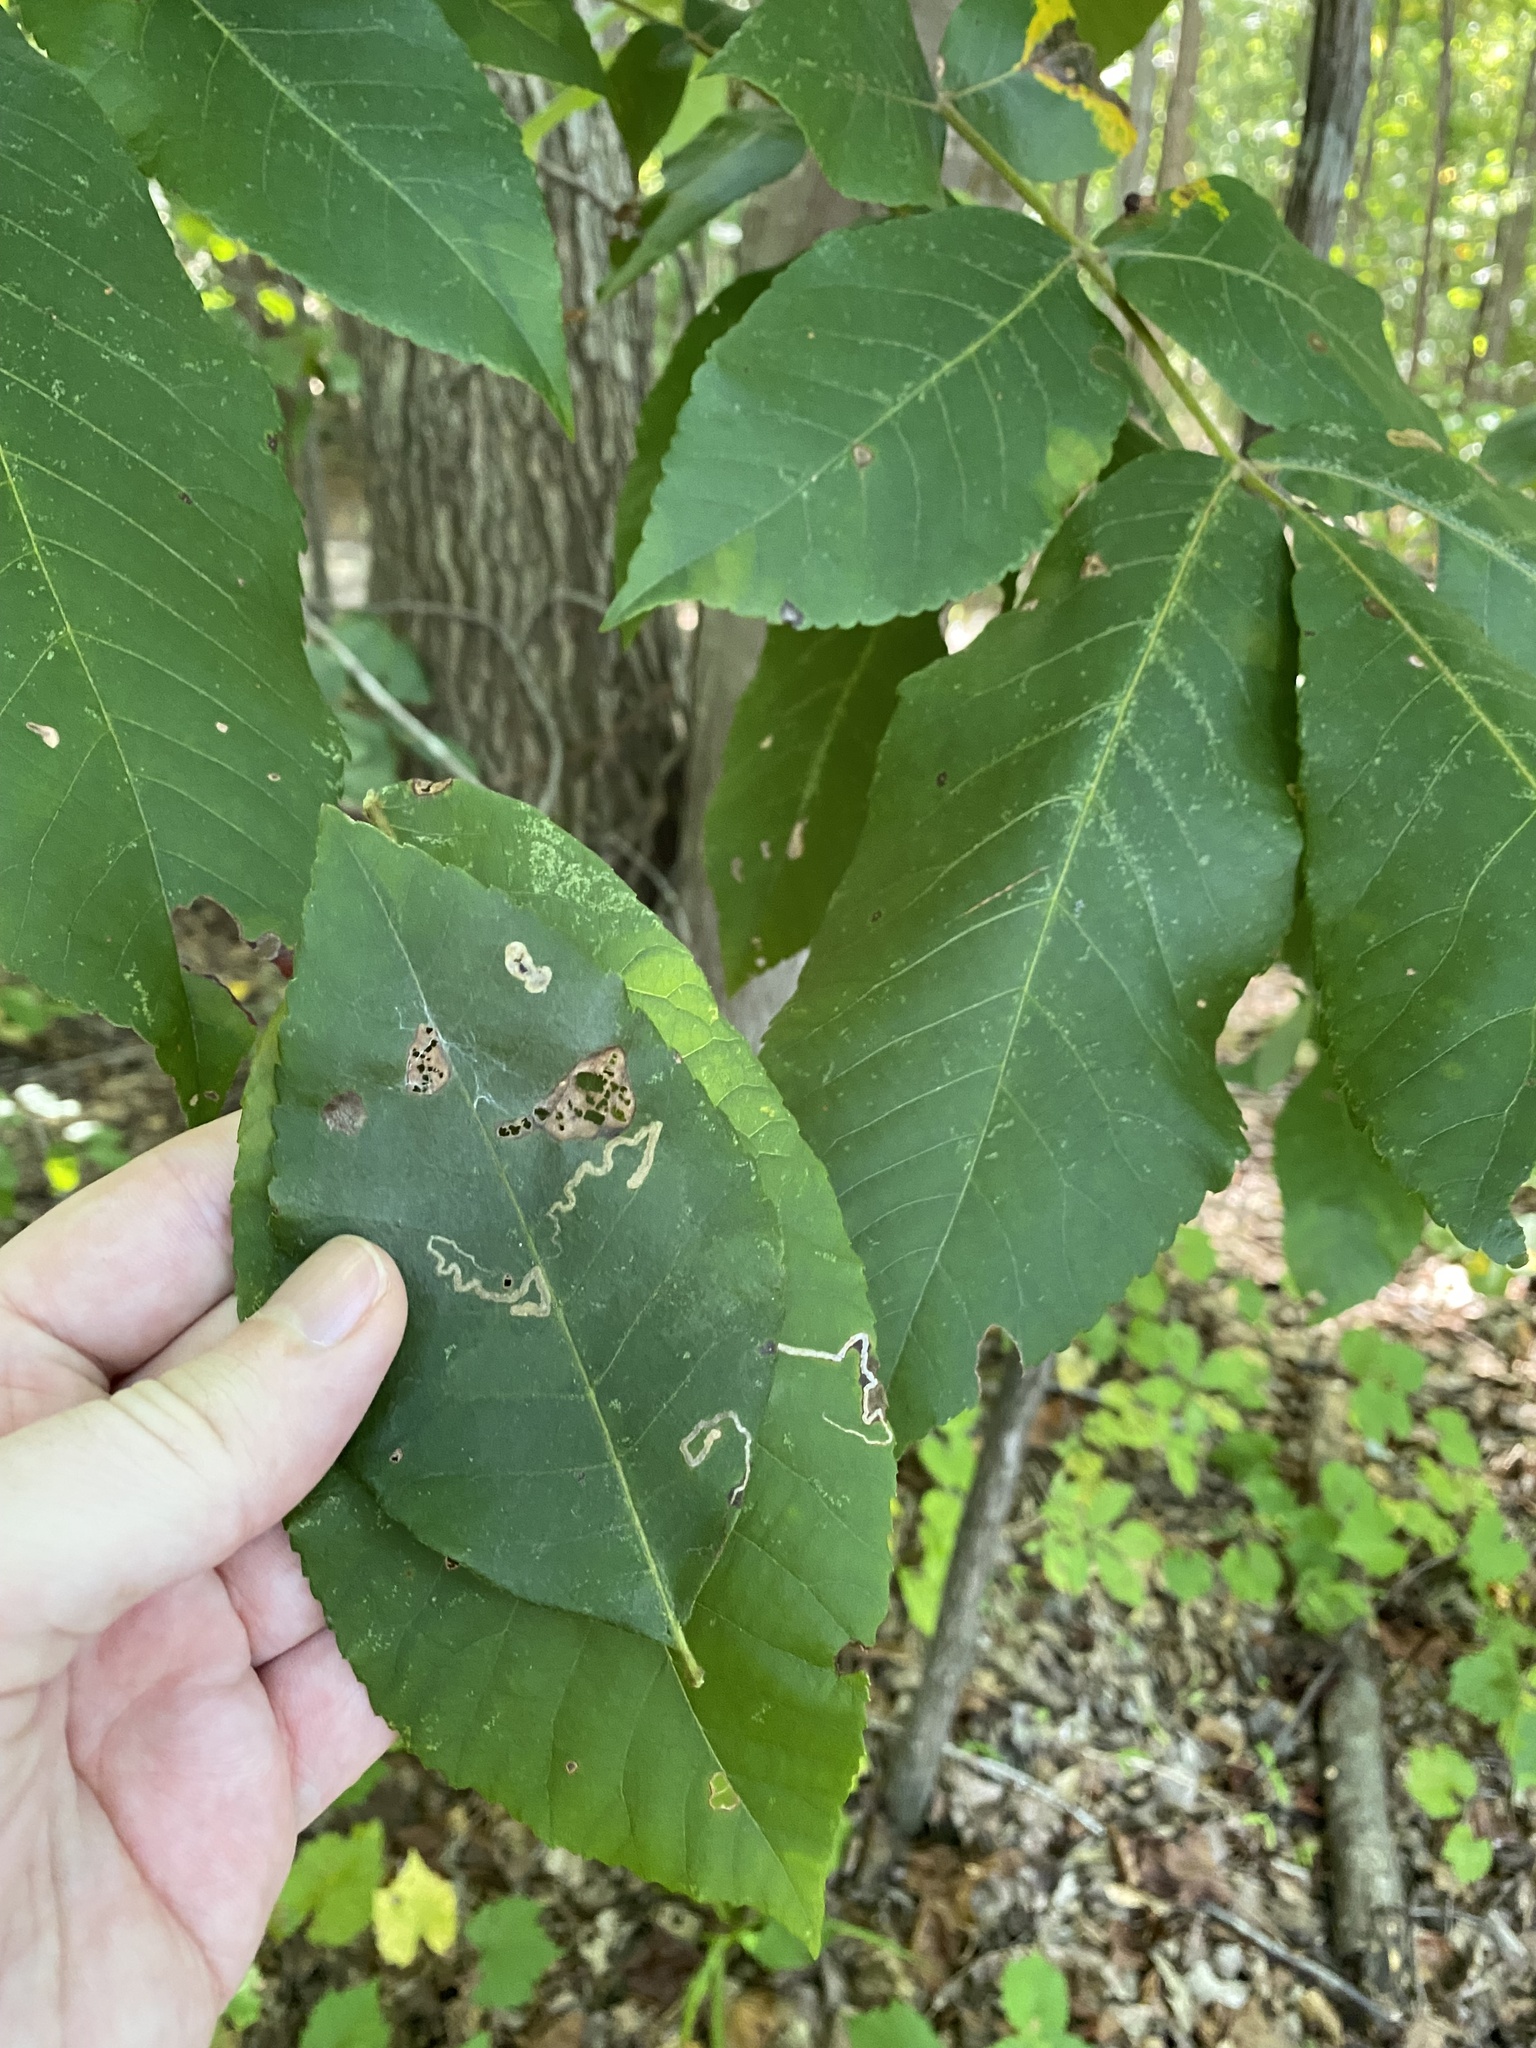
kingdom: Animalia
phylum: Arthropoda
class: Insecta
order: Lepidoptera
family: Nepticulidae
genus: Stigmella
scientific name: Stigmella caryaefoliella
